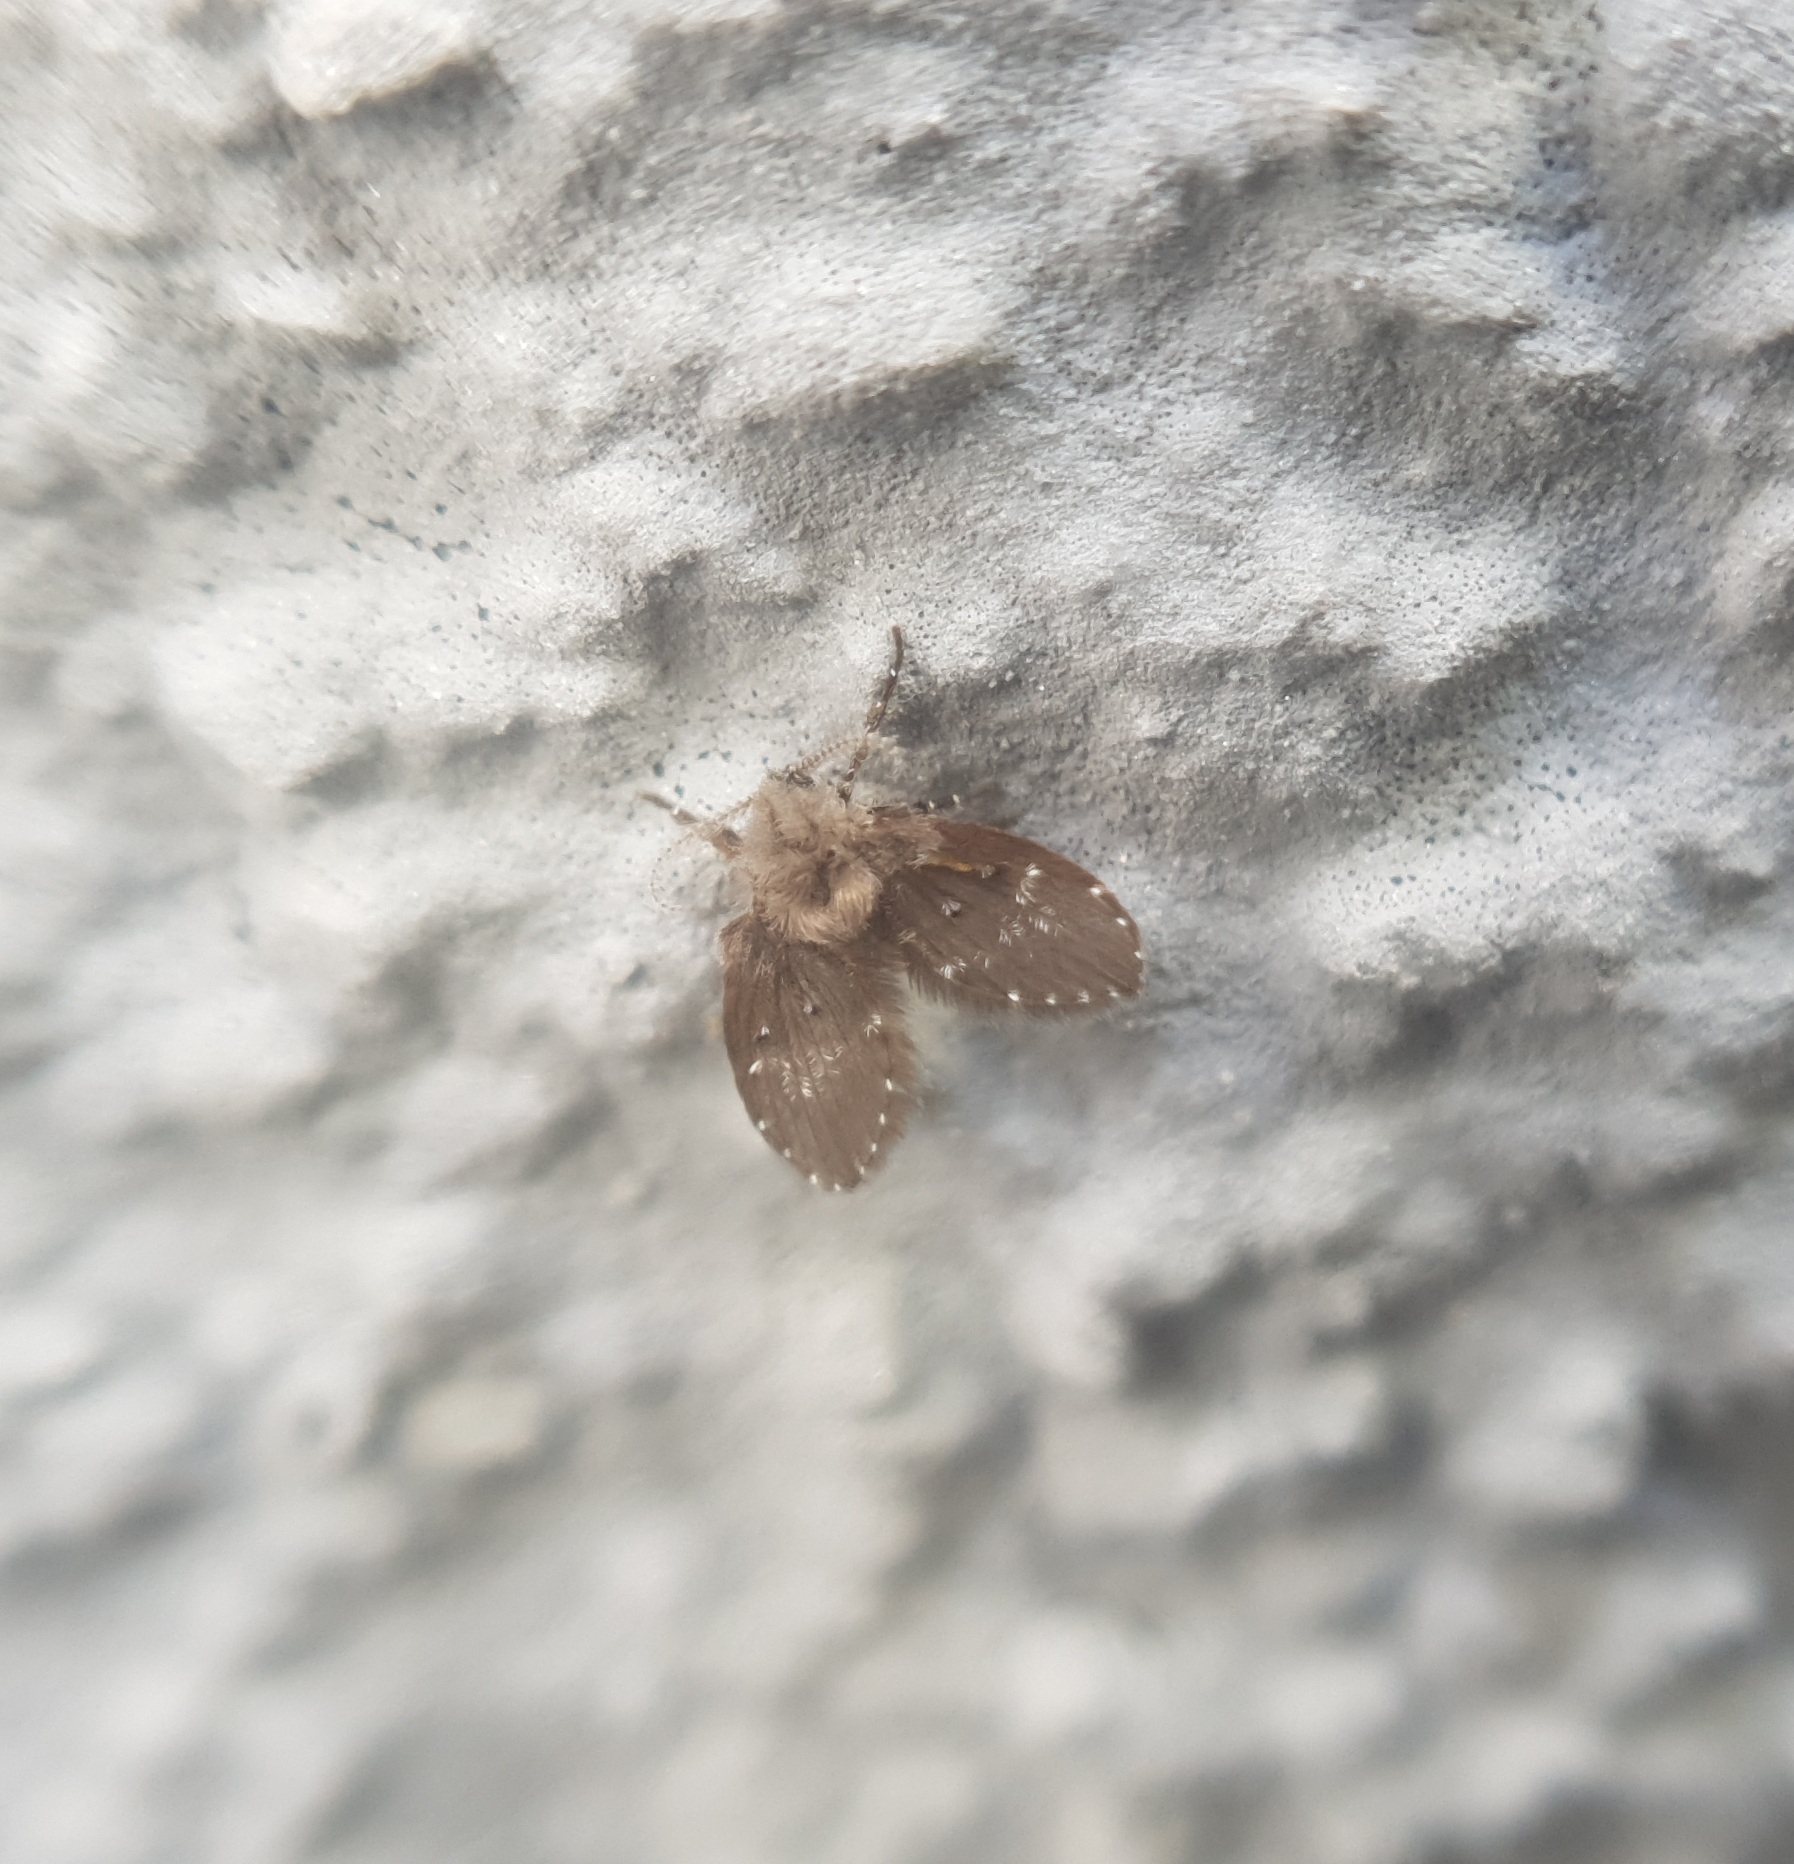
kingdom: Animalia
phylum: Arthropoda
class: Insecta
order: Diptera
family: Psychodidae
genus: Clogmia
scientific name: Clogmia albipunctatus
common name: White-spotted moth fly
